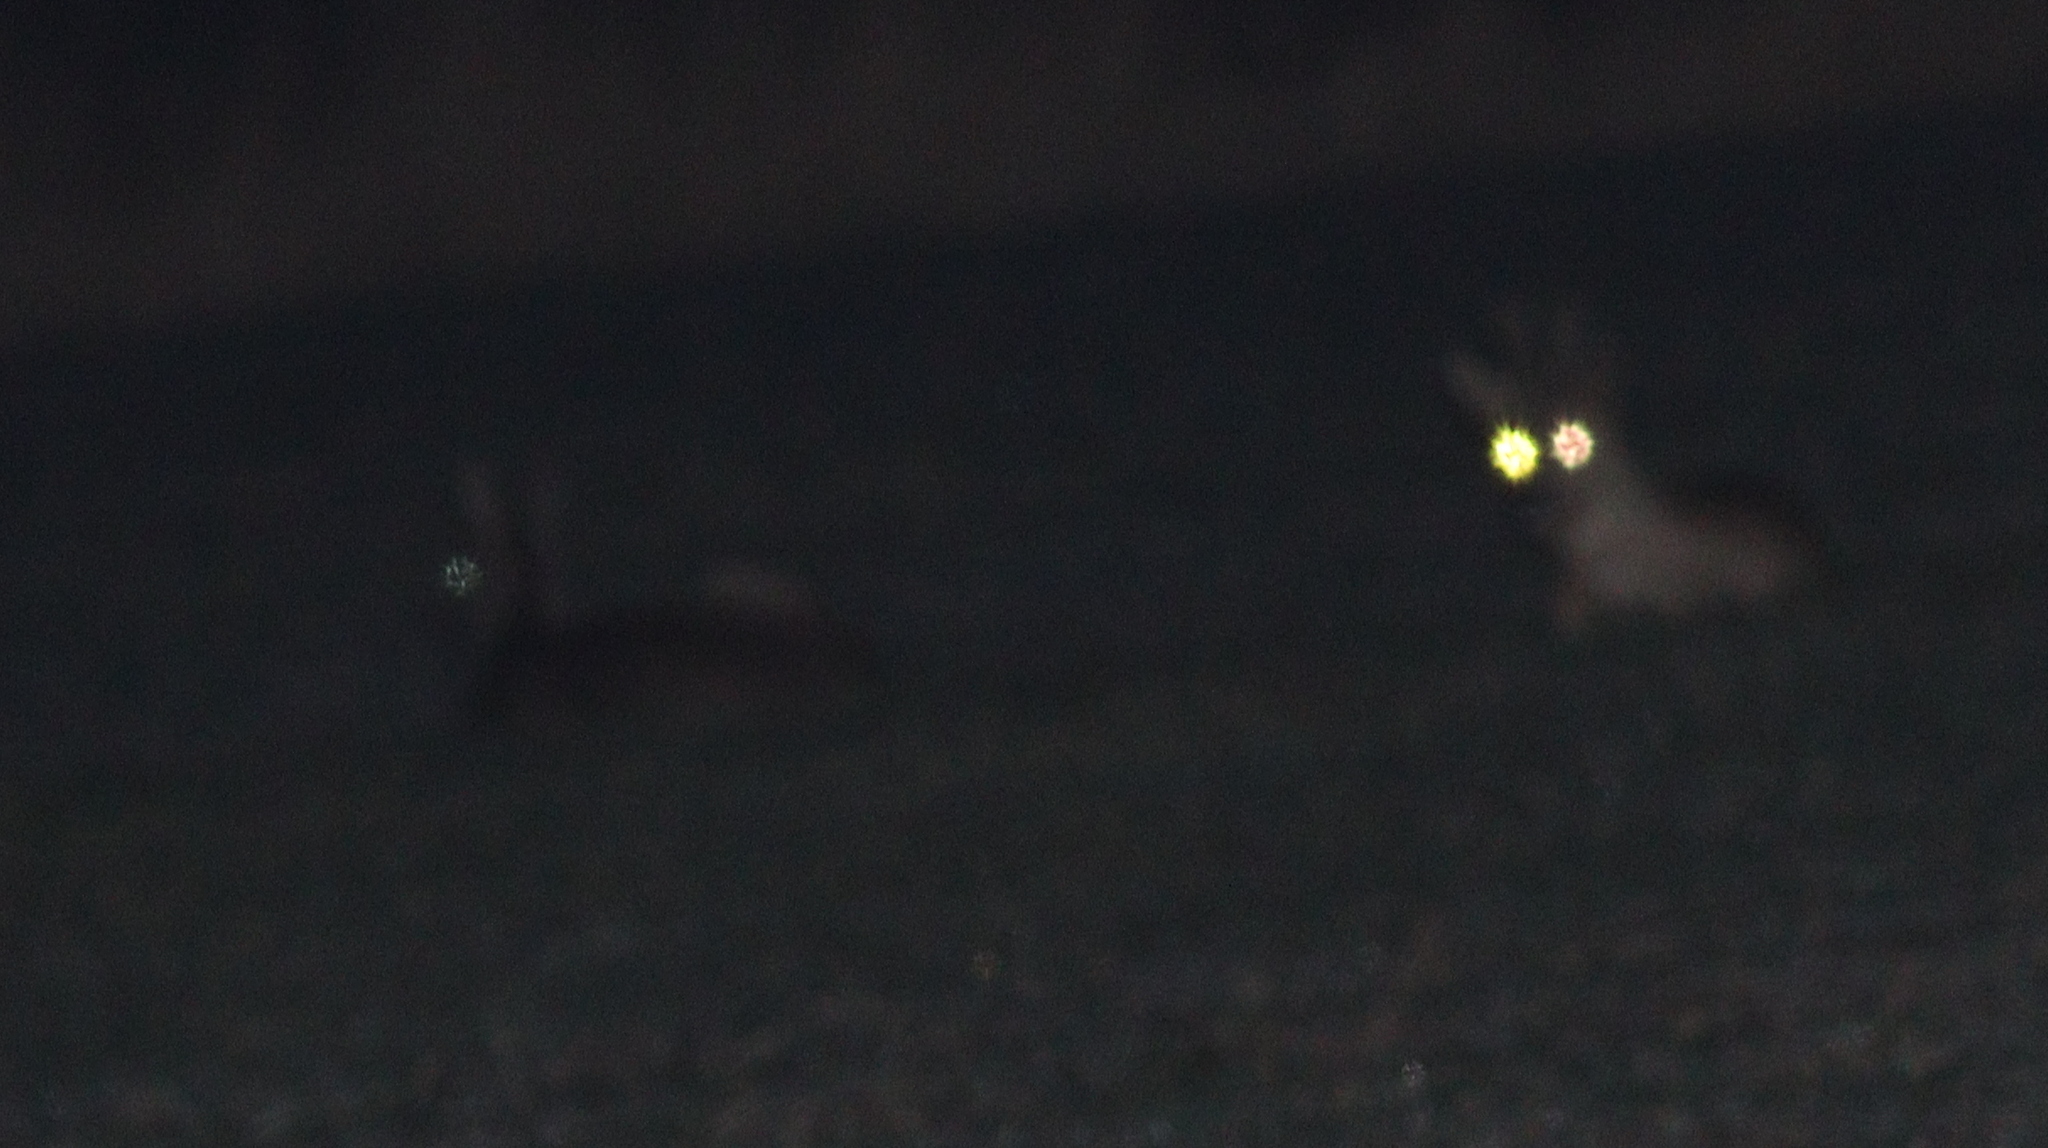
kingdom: Animalia
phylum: Chordata
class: Mammalia
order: Artiodactyla
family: Cervidae
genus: Capreolus
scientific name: Capreolus capreolus
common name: Western roe deer
